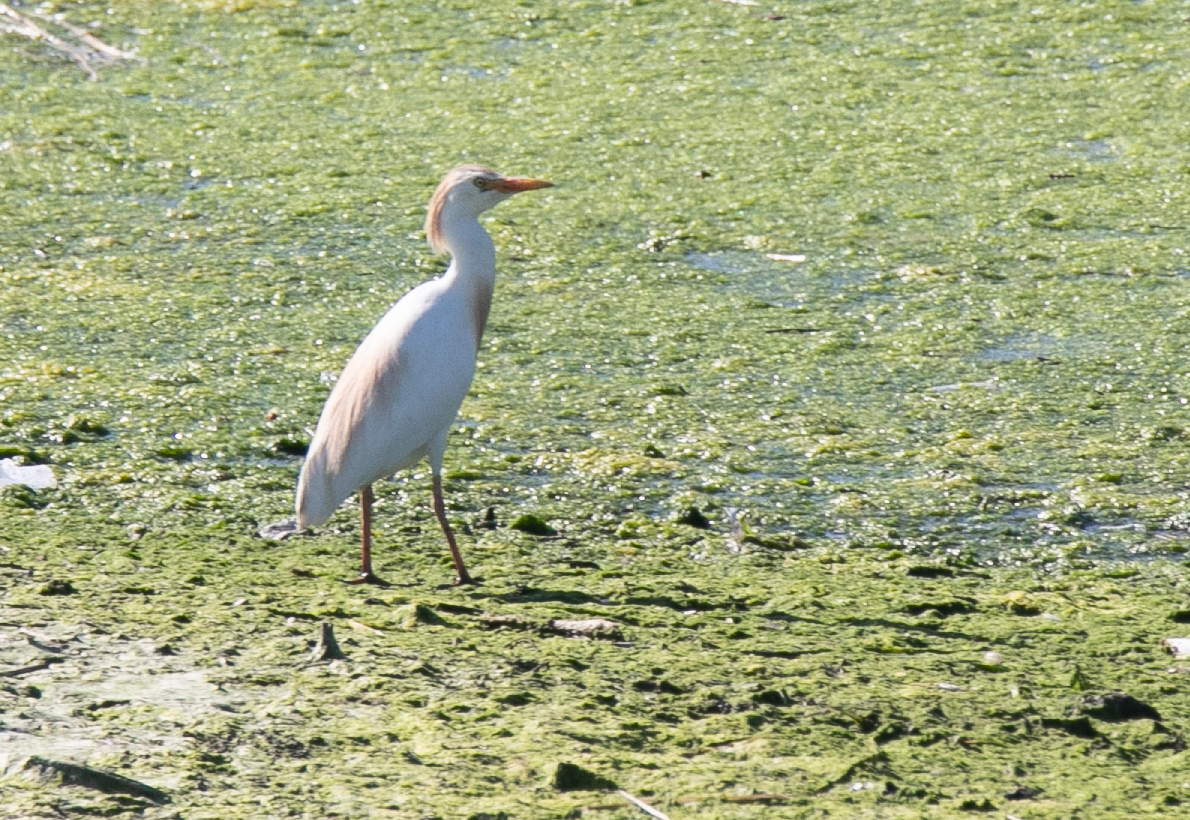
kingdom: Animalia
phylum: Chordata
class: Aves
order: Pelecaniformes
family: Ardeidae
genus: Bubulcus
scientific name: Bubulcus ibis
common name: Cattle egret
